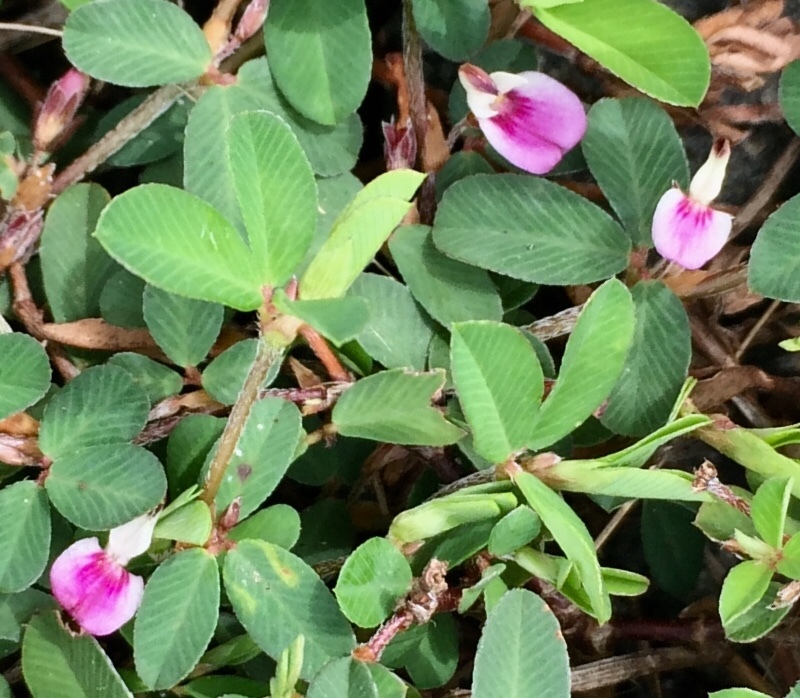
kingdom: Plantae
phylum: Tracheophyta
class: Magnoliopsida
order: Fabales
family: Fabaceae
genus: Kummerowia
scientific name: Kummerowia striata
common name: Japanese clover
